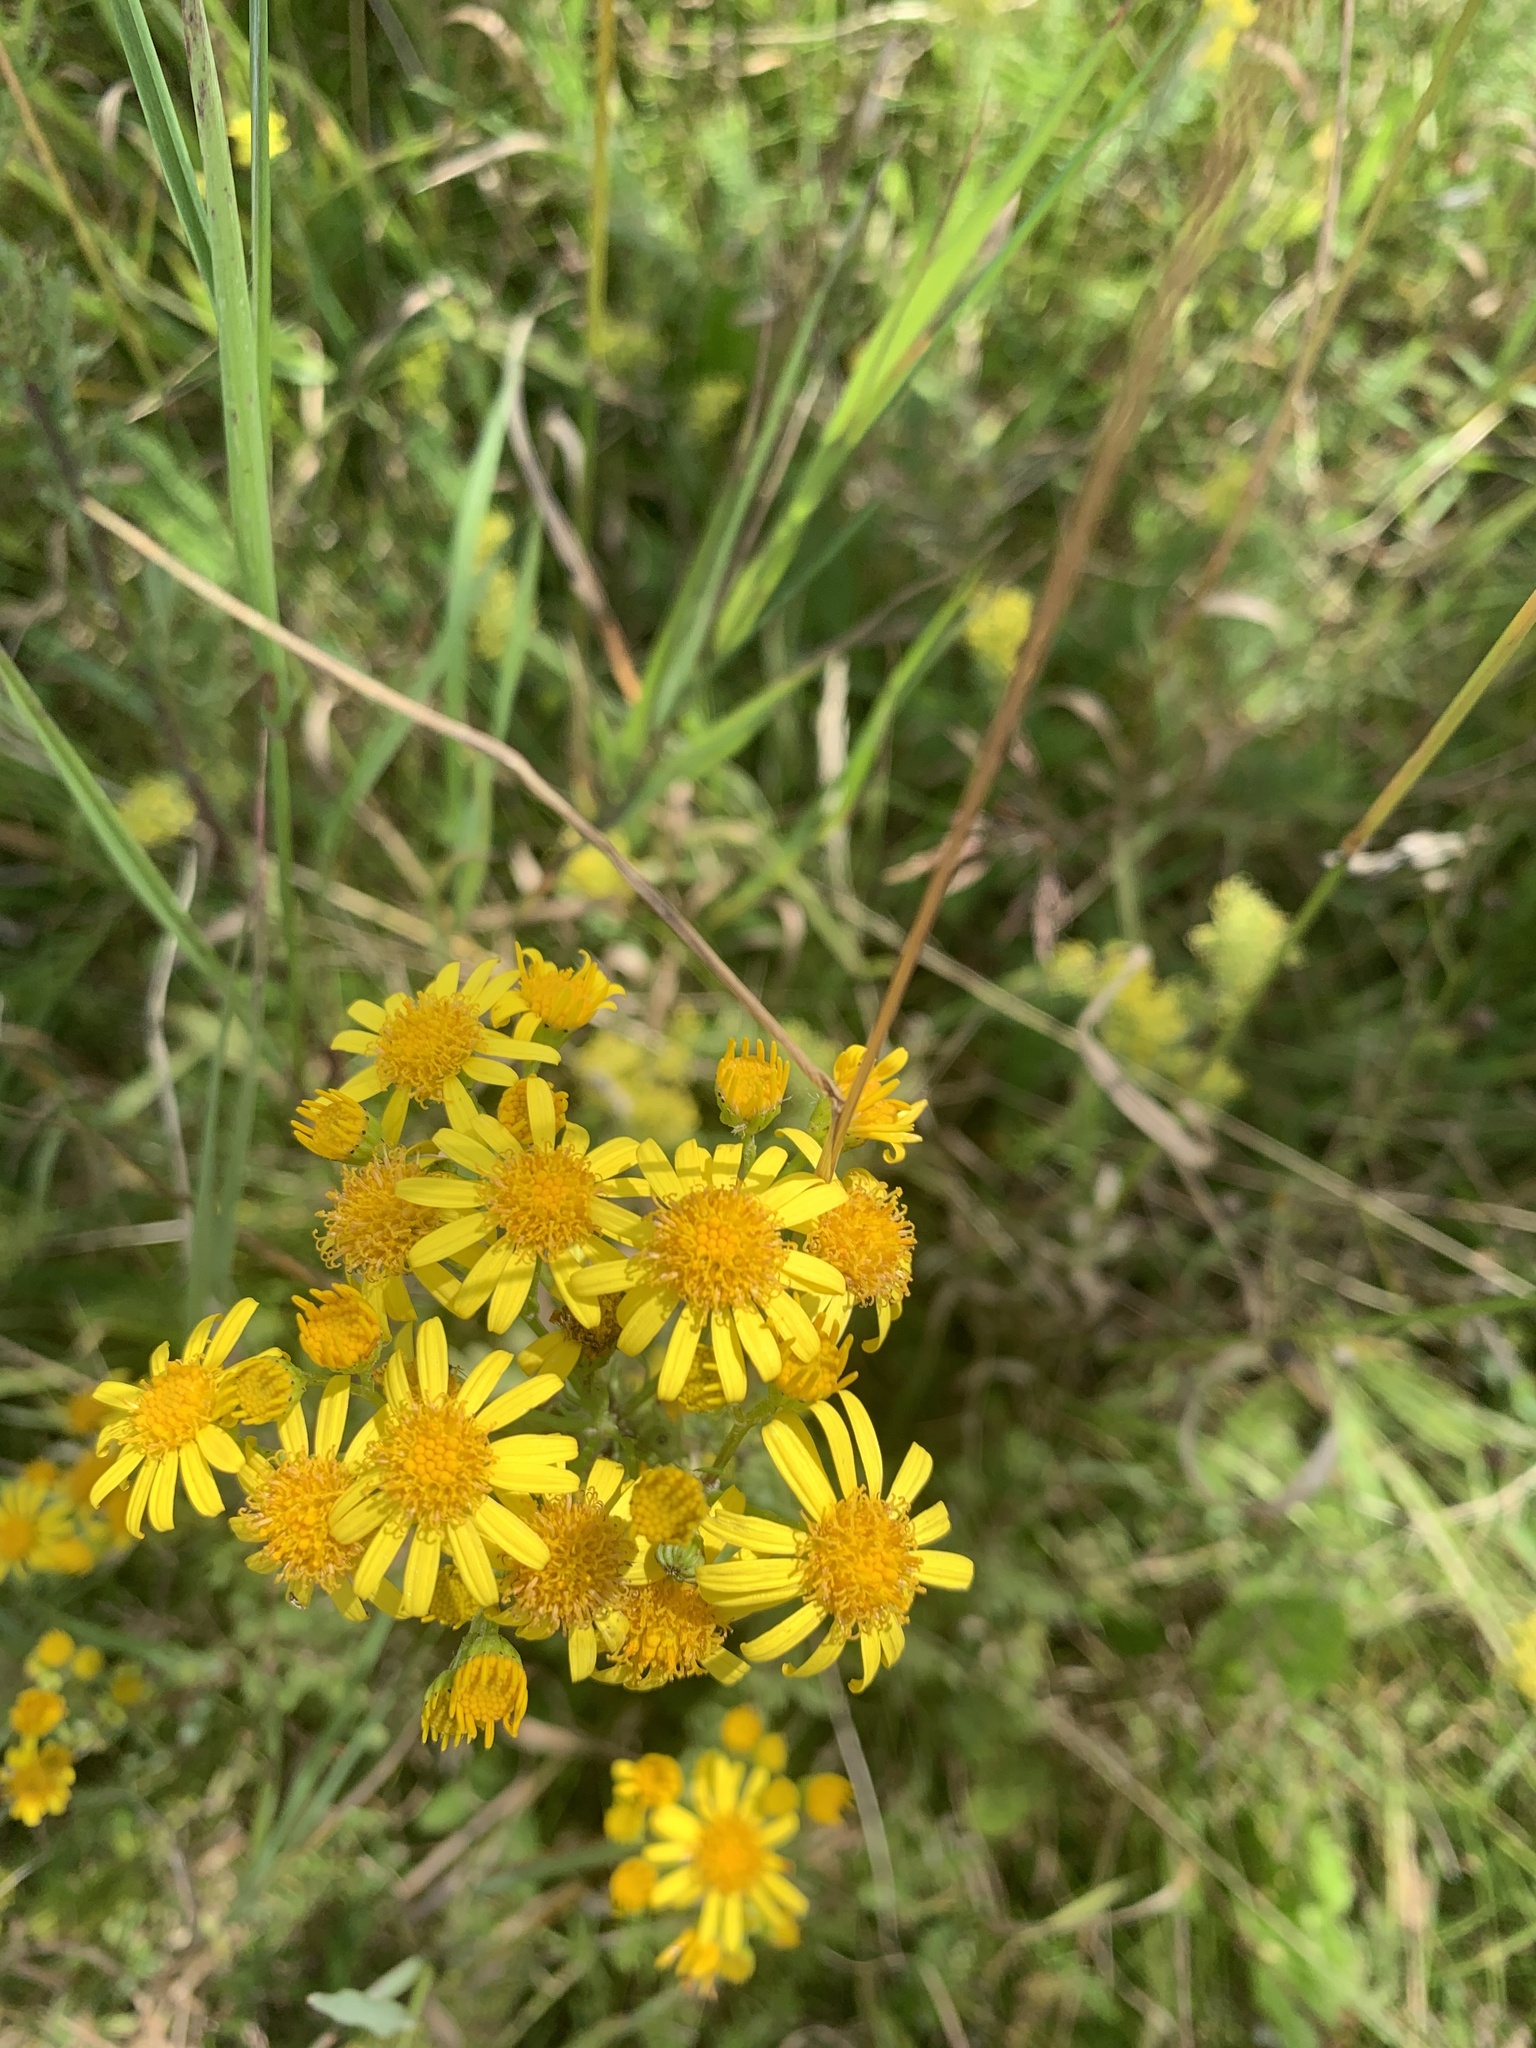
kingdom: Plantae
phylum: Tracheophyta
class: Magnoliopsida
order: Asterales
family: Asteraceae
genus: Jacobaea
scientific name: Jacobaea vulgaris
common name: Stinking willie
